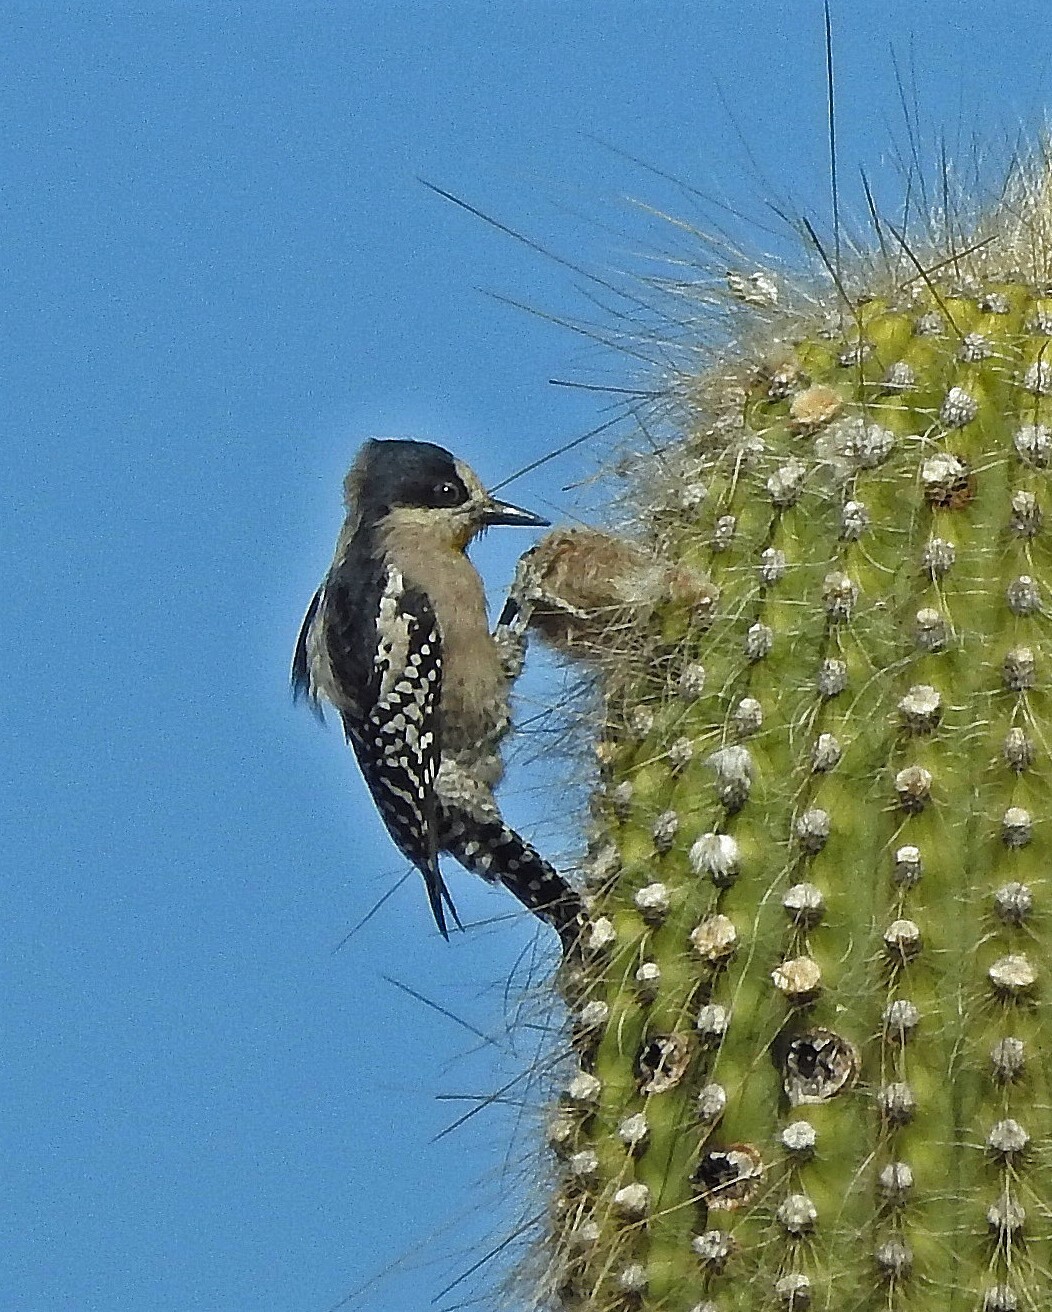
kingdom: Animalia
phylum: Chordata
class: Aves
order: Piciformes
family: Picidae
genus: Melanerpes
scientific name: Melanerpes cactorum
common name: White-fronted woodpecker
